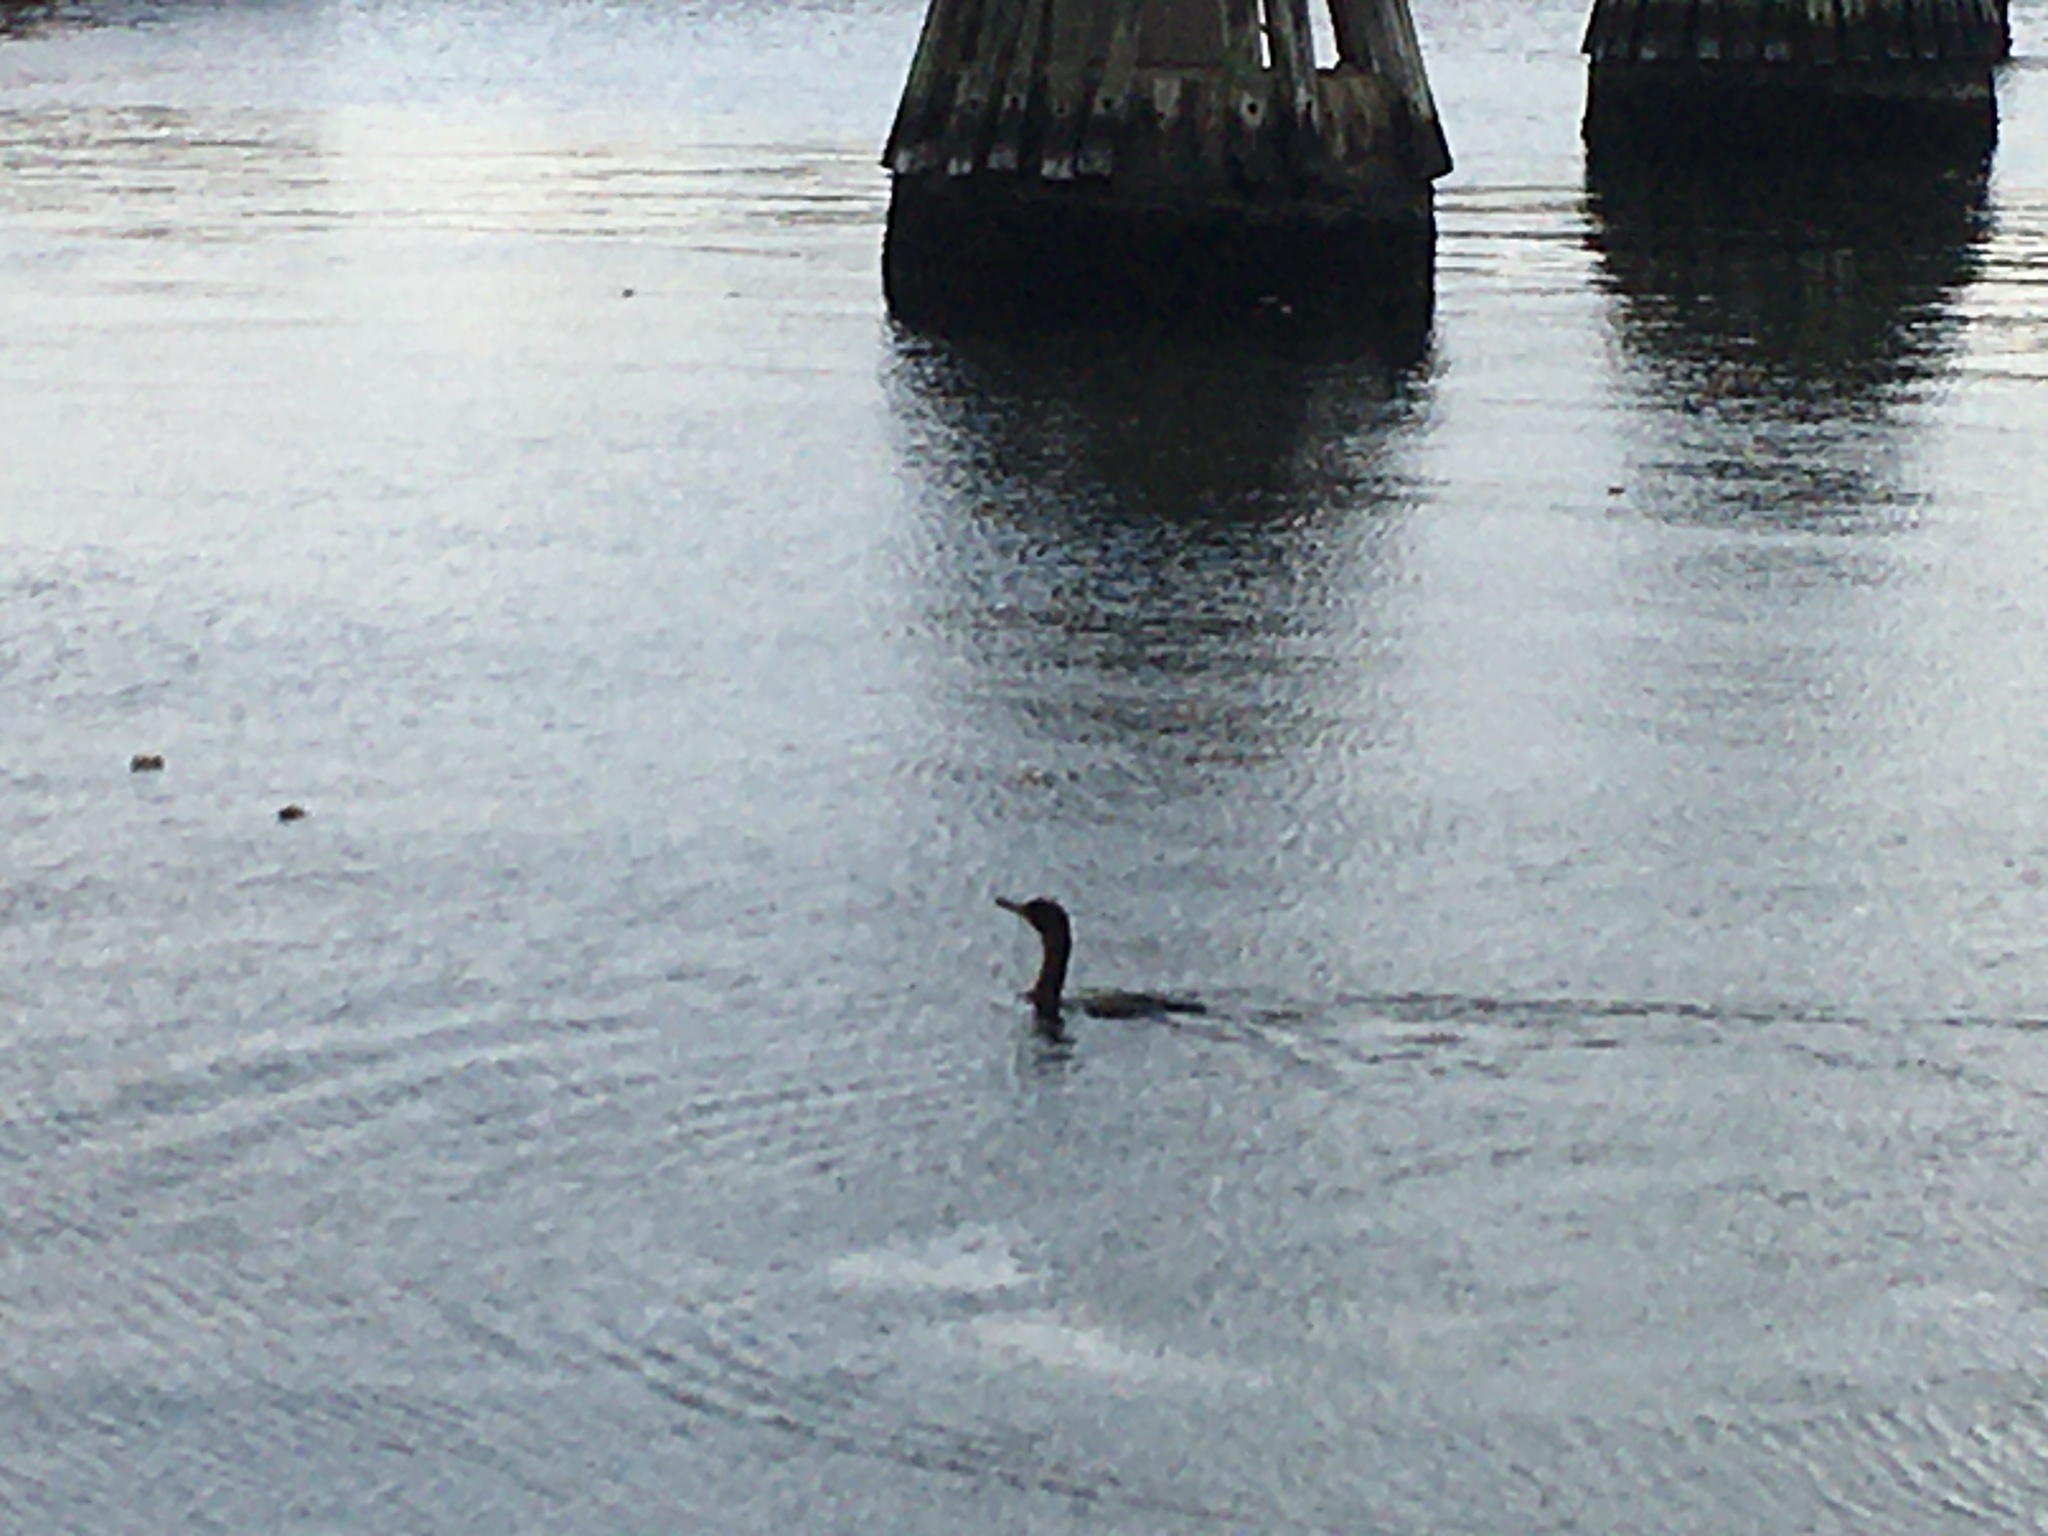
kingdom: Animalia
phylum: Chordata
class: Aves
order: Suliformes
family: Phalacrocoracidae
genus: Phalacrocorax
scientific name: Phalacrocorax auritus
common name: Double-crested cormorant
